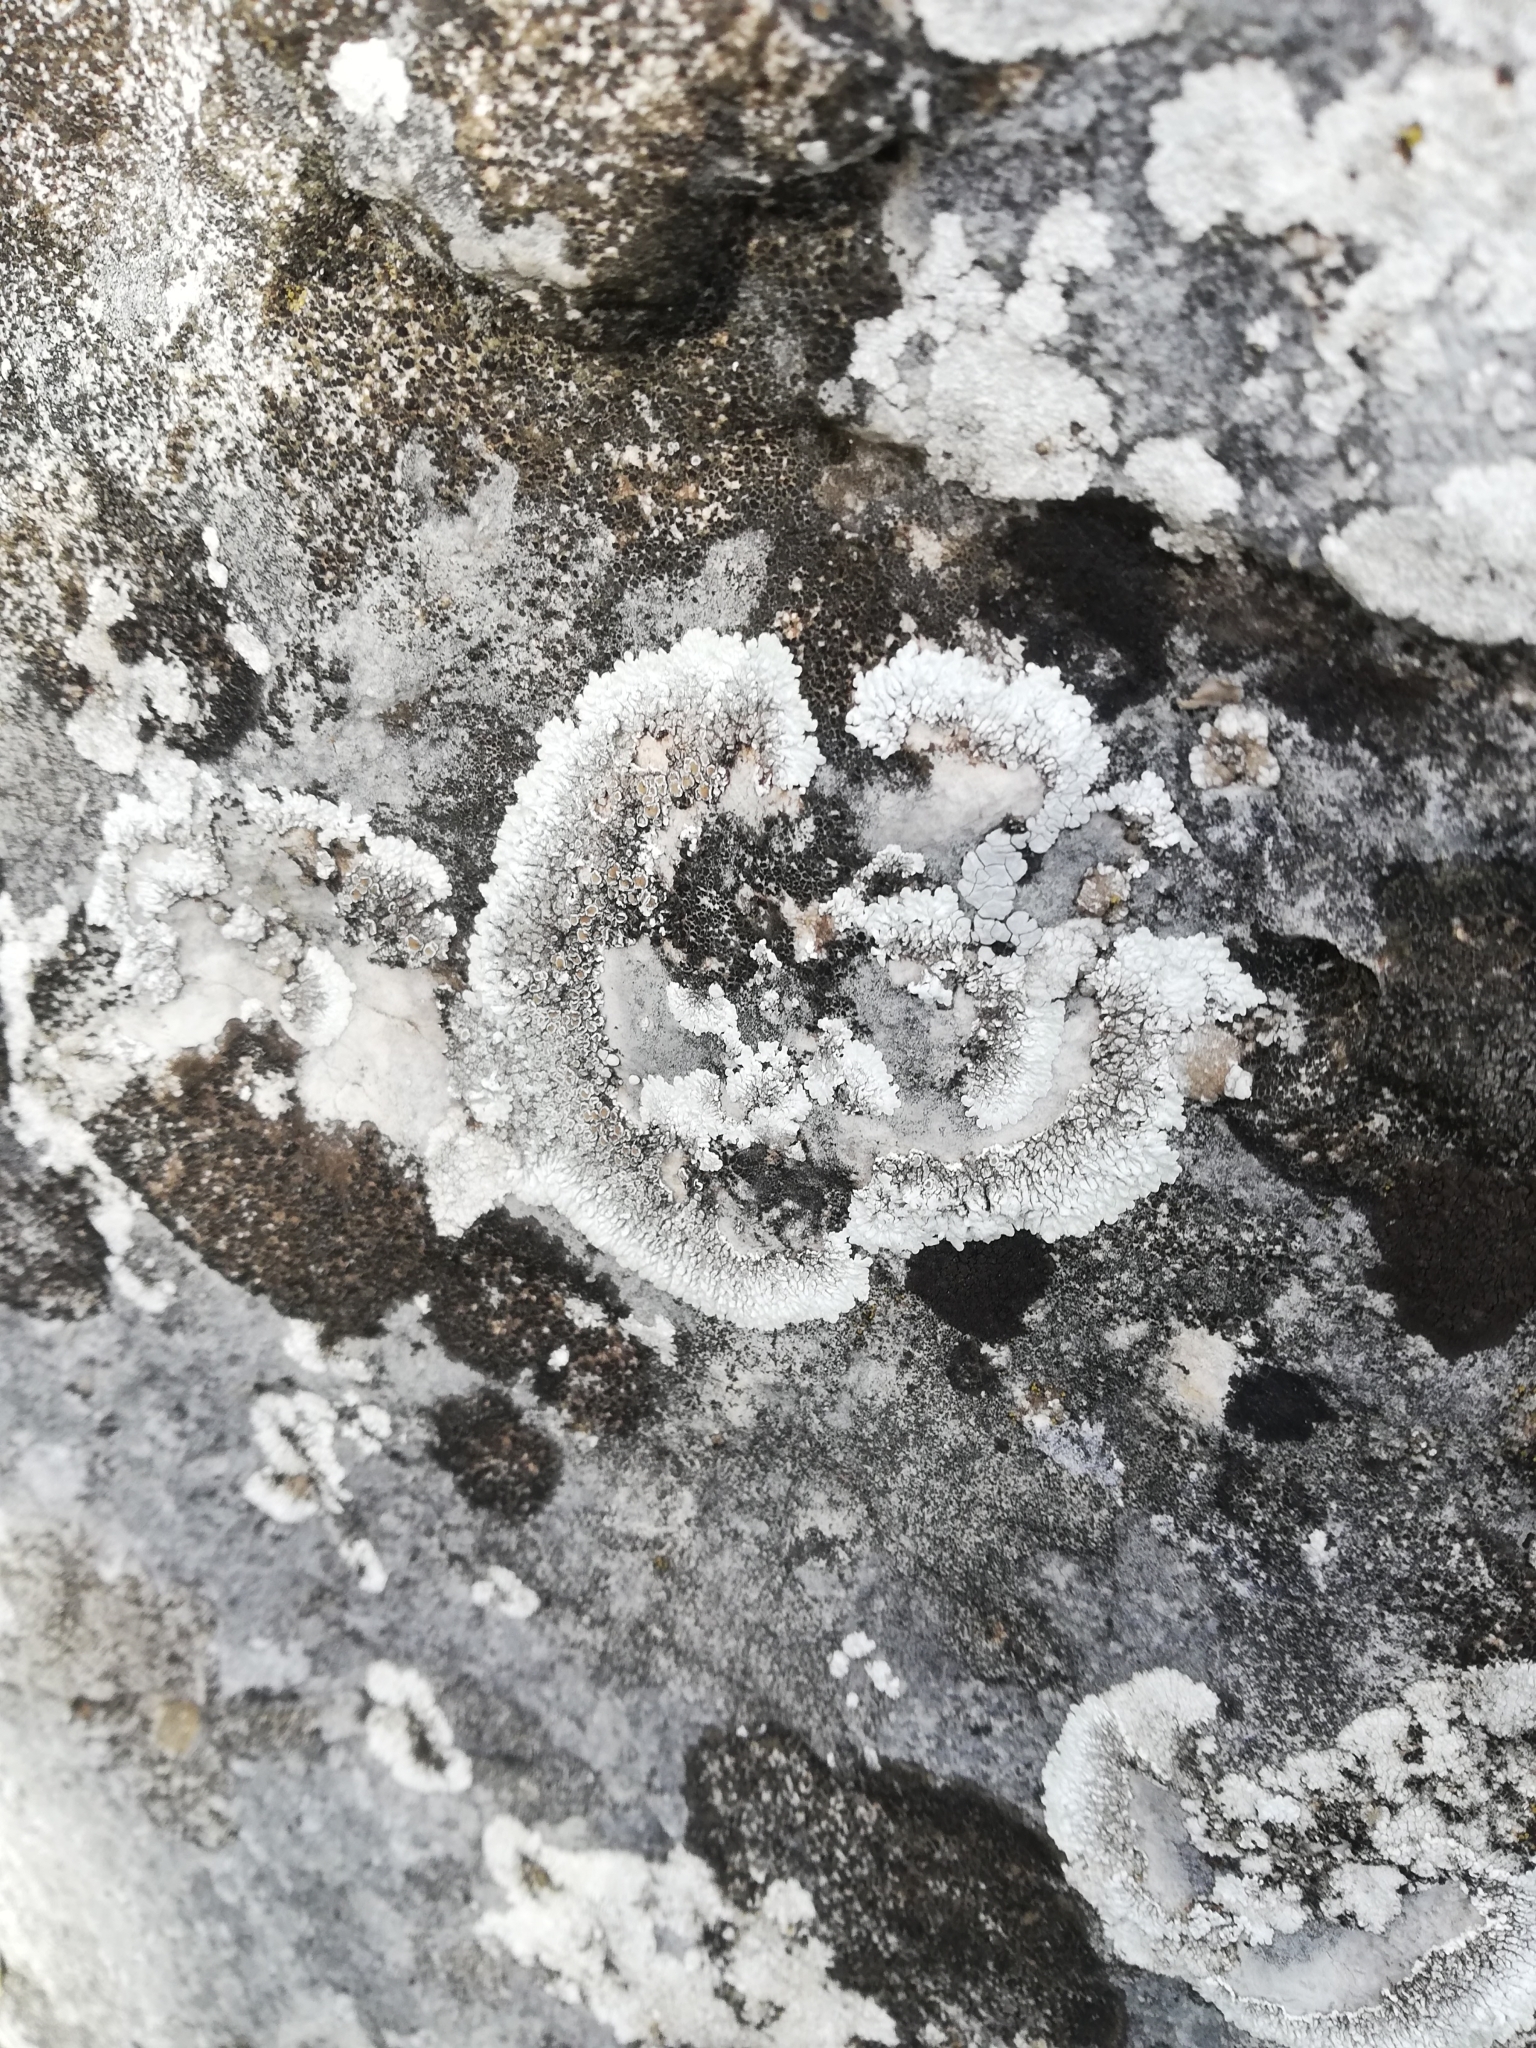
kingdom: Fungi
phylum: Ascomycota
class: Lecanoromycetes
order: Lecanorales
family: Lecanoraceae
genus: Protoparmeliopsis
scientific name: Protoparmeliopsis muralis
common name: Stonewall rim lichen
